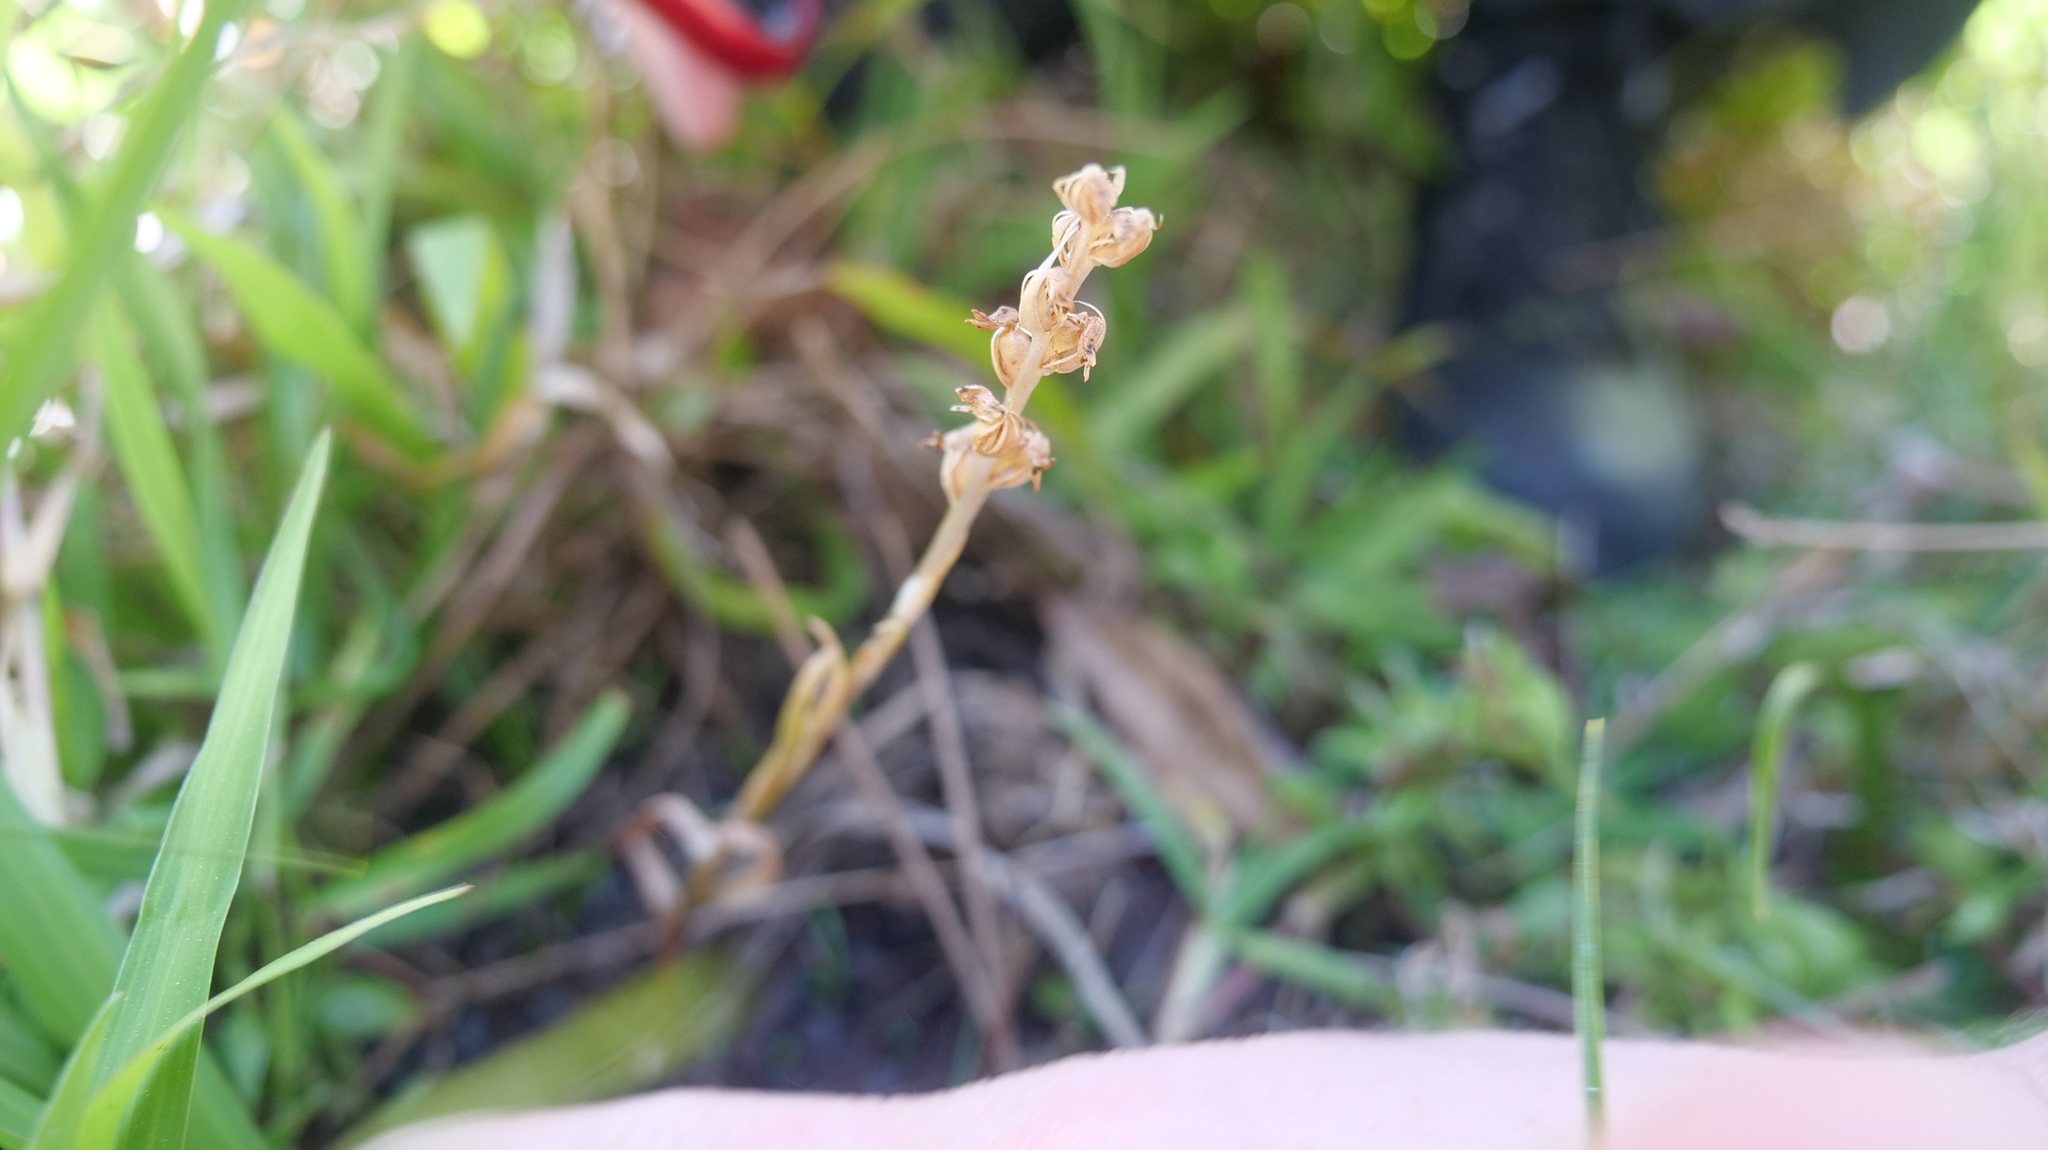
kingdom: Plantae
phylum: Tracheophyta
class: Liliopsida
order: Asparagales
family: Orchidaceae
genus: Zeuxine
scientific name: Zeuxine strateumatica
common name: Soldier's orchid
